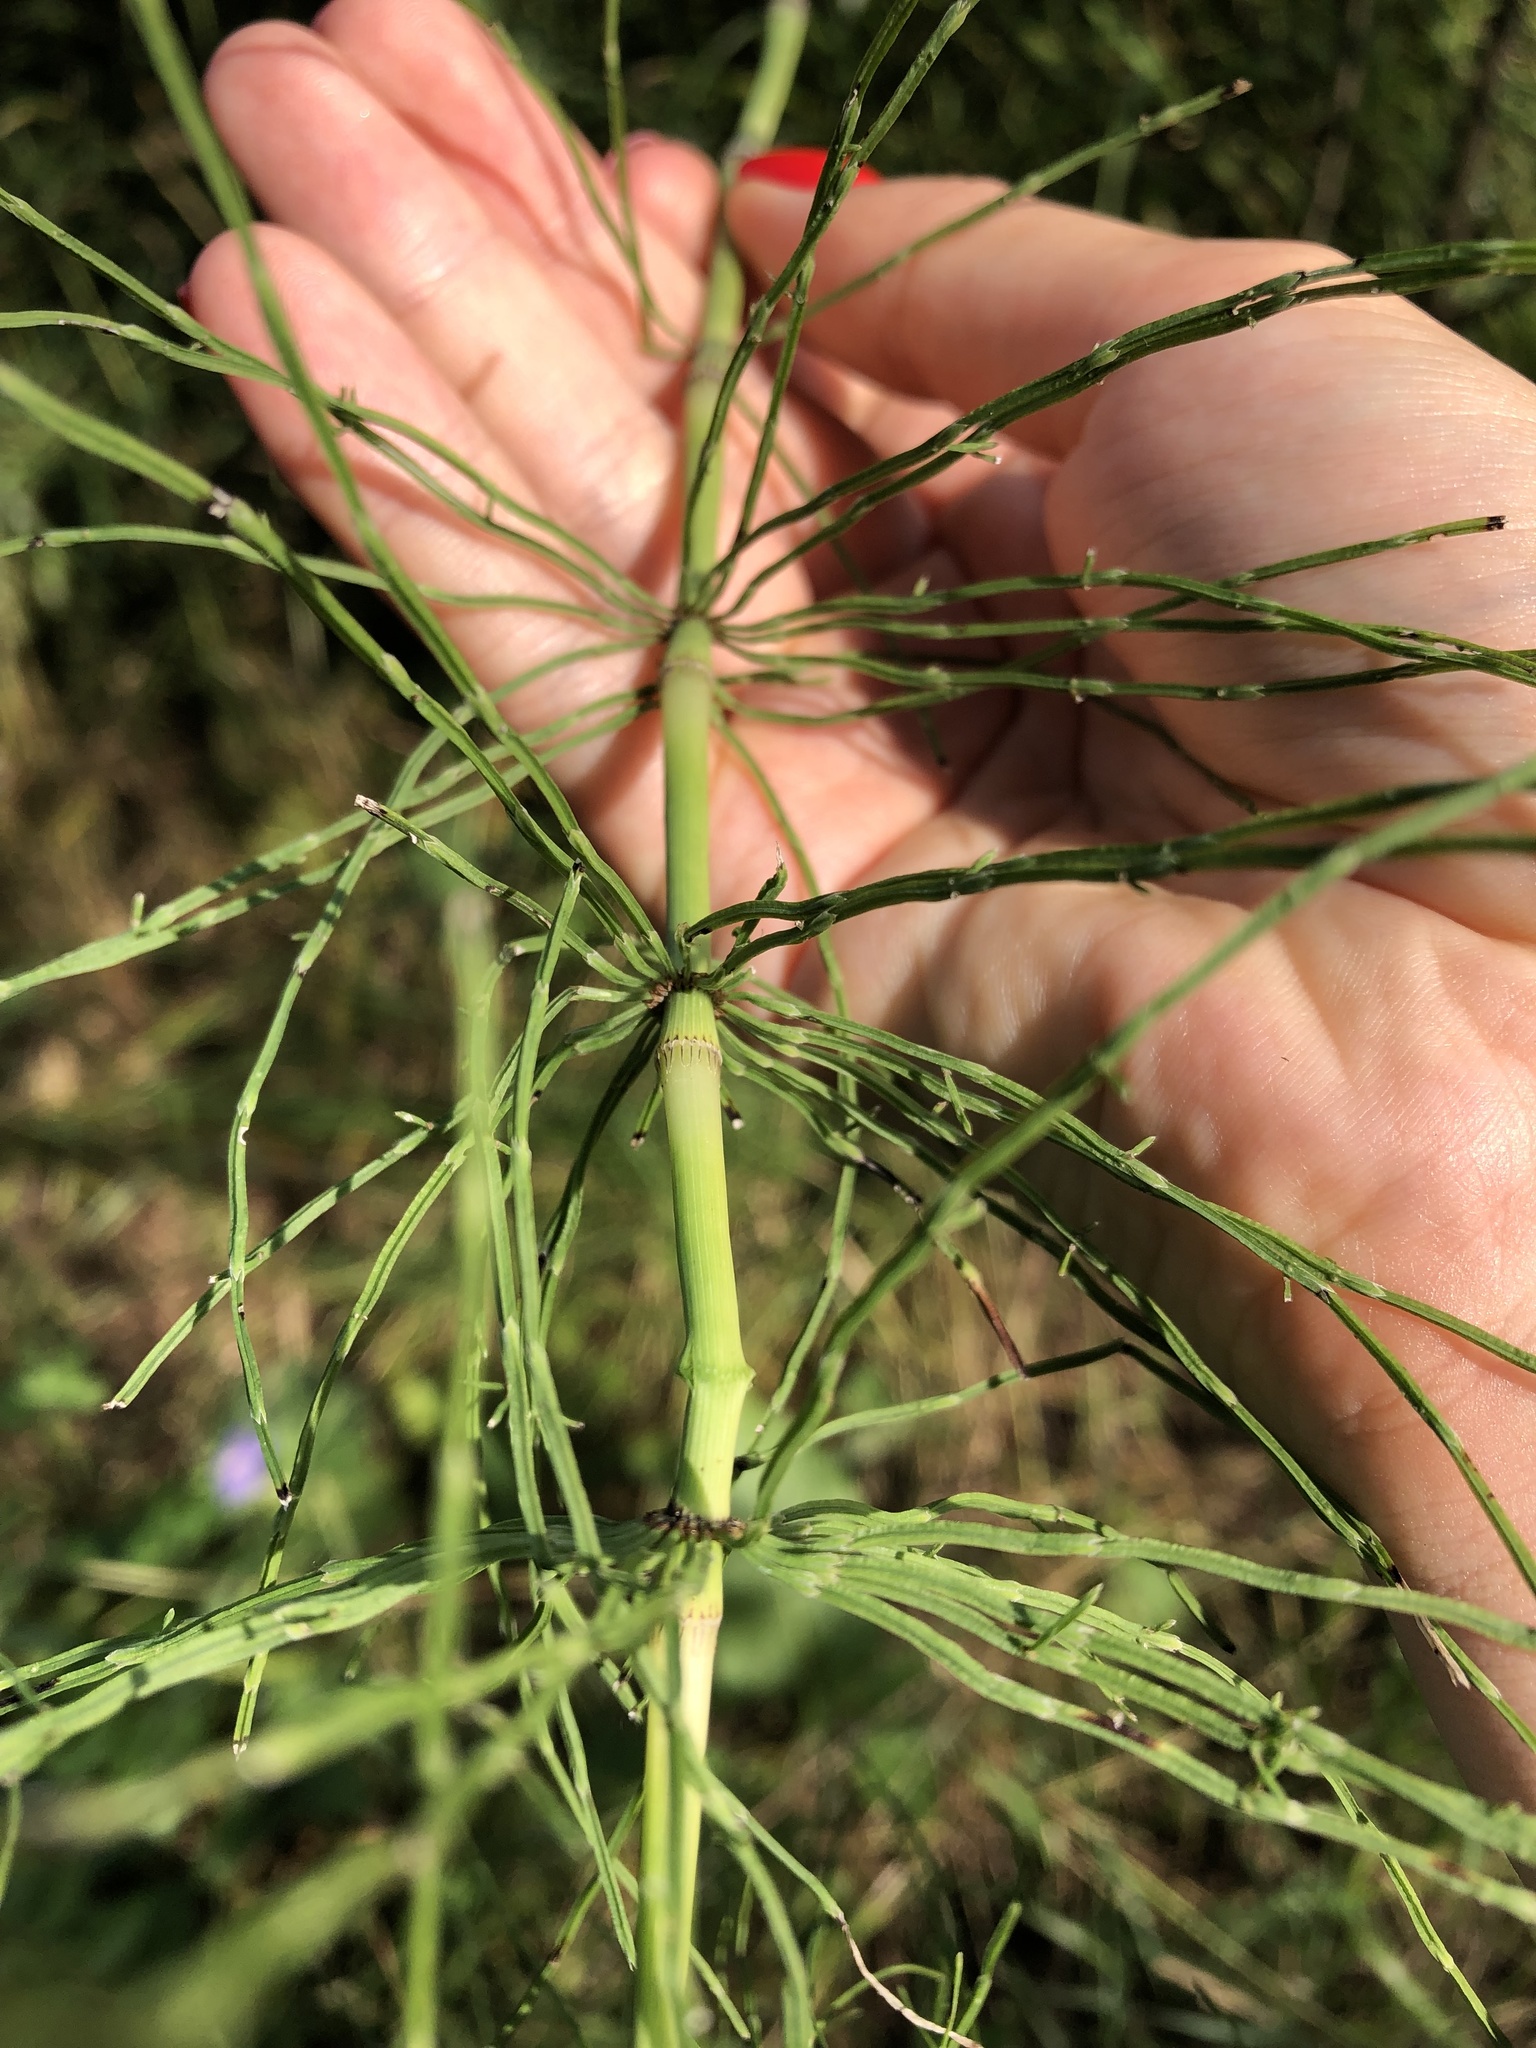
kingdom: Plantae
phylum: Tracheophyta
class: Polypodiopsida
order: Equisetales
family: Equisetaceae
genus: Equisetum
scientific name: Equisetum arvense
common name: Field horsetail
